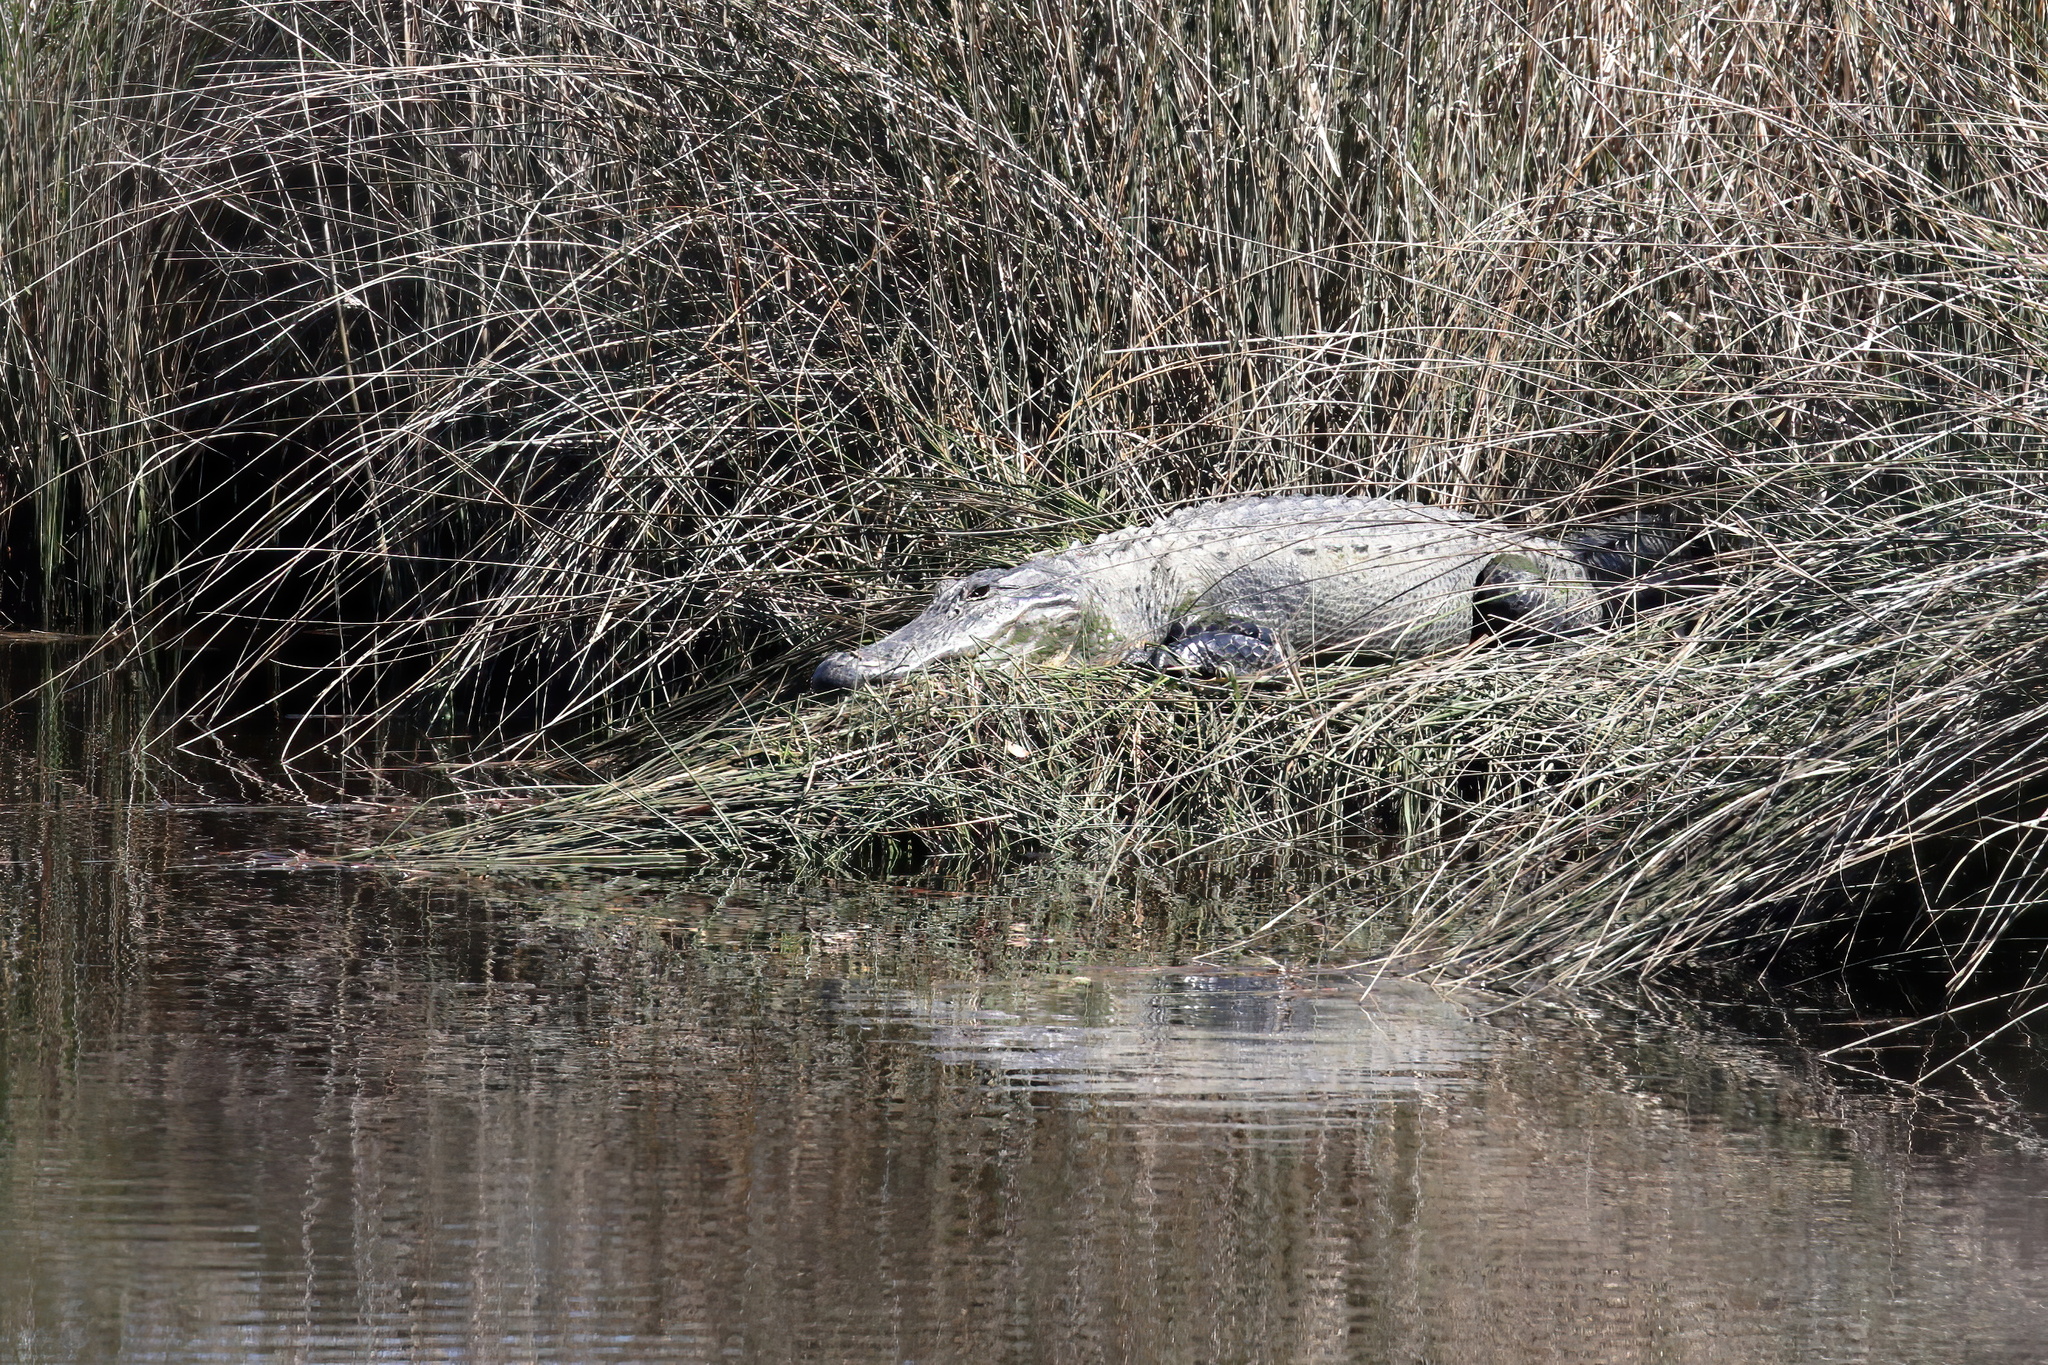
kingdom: Animalia
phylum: Chordata
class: Crocodylia
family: Alligatoridae
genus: Alligator
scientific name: Alligator mississippiensis
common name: American alligator
